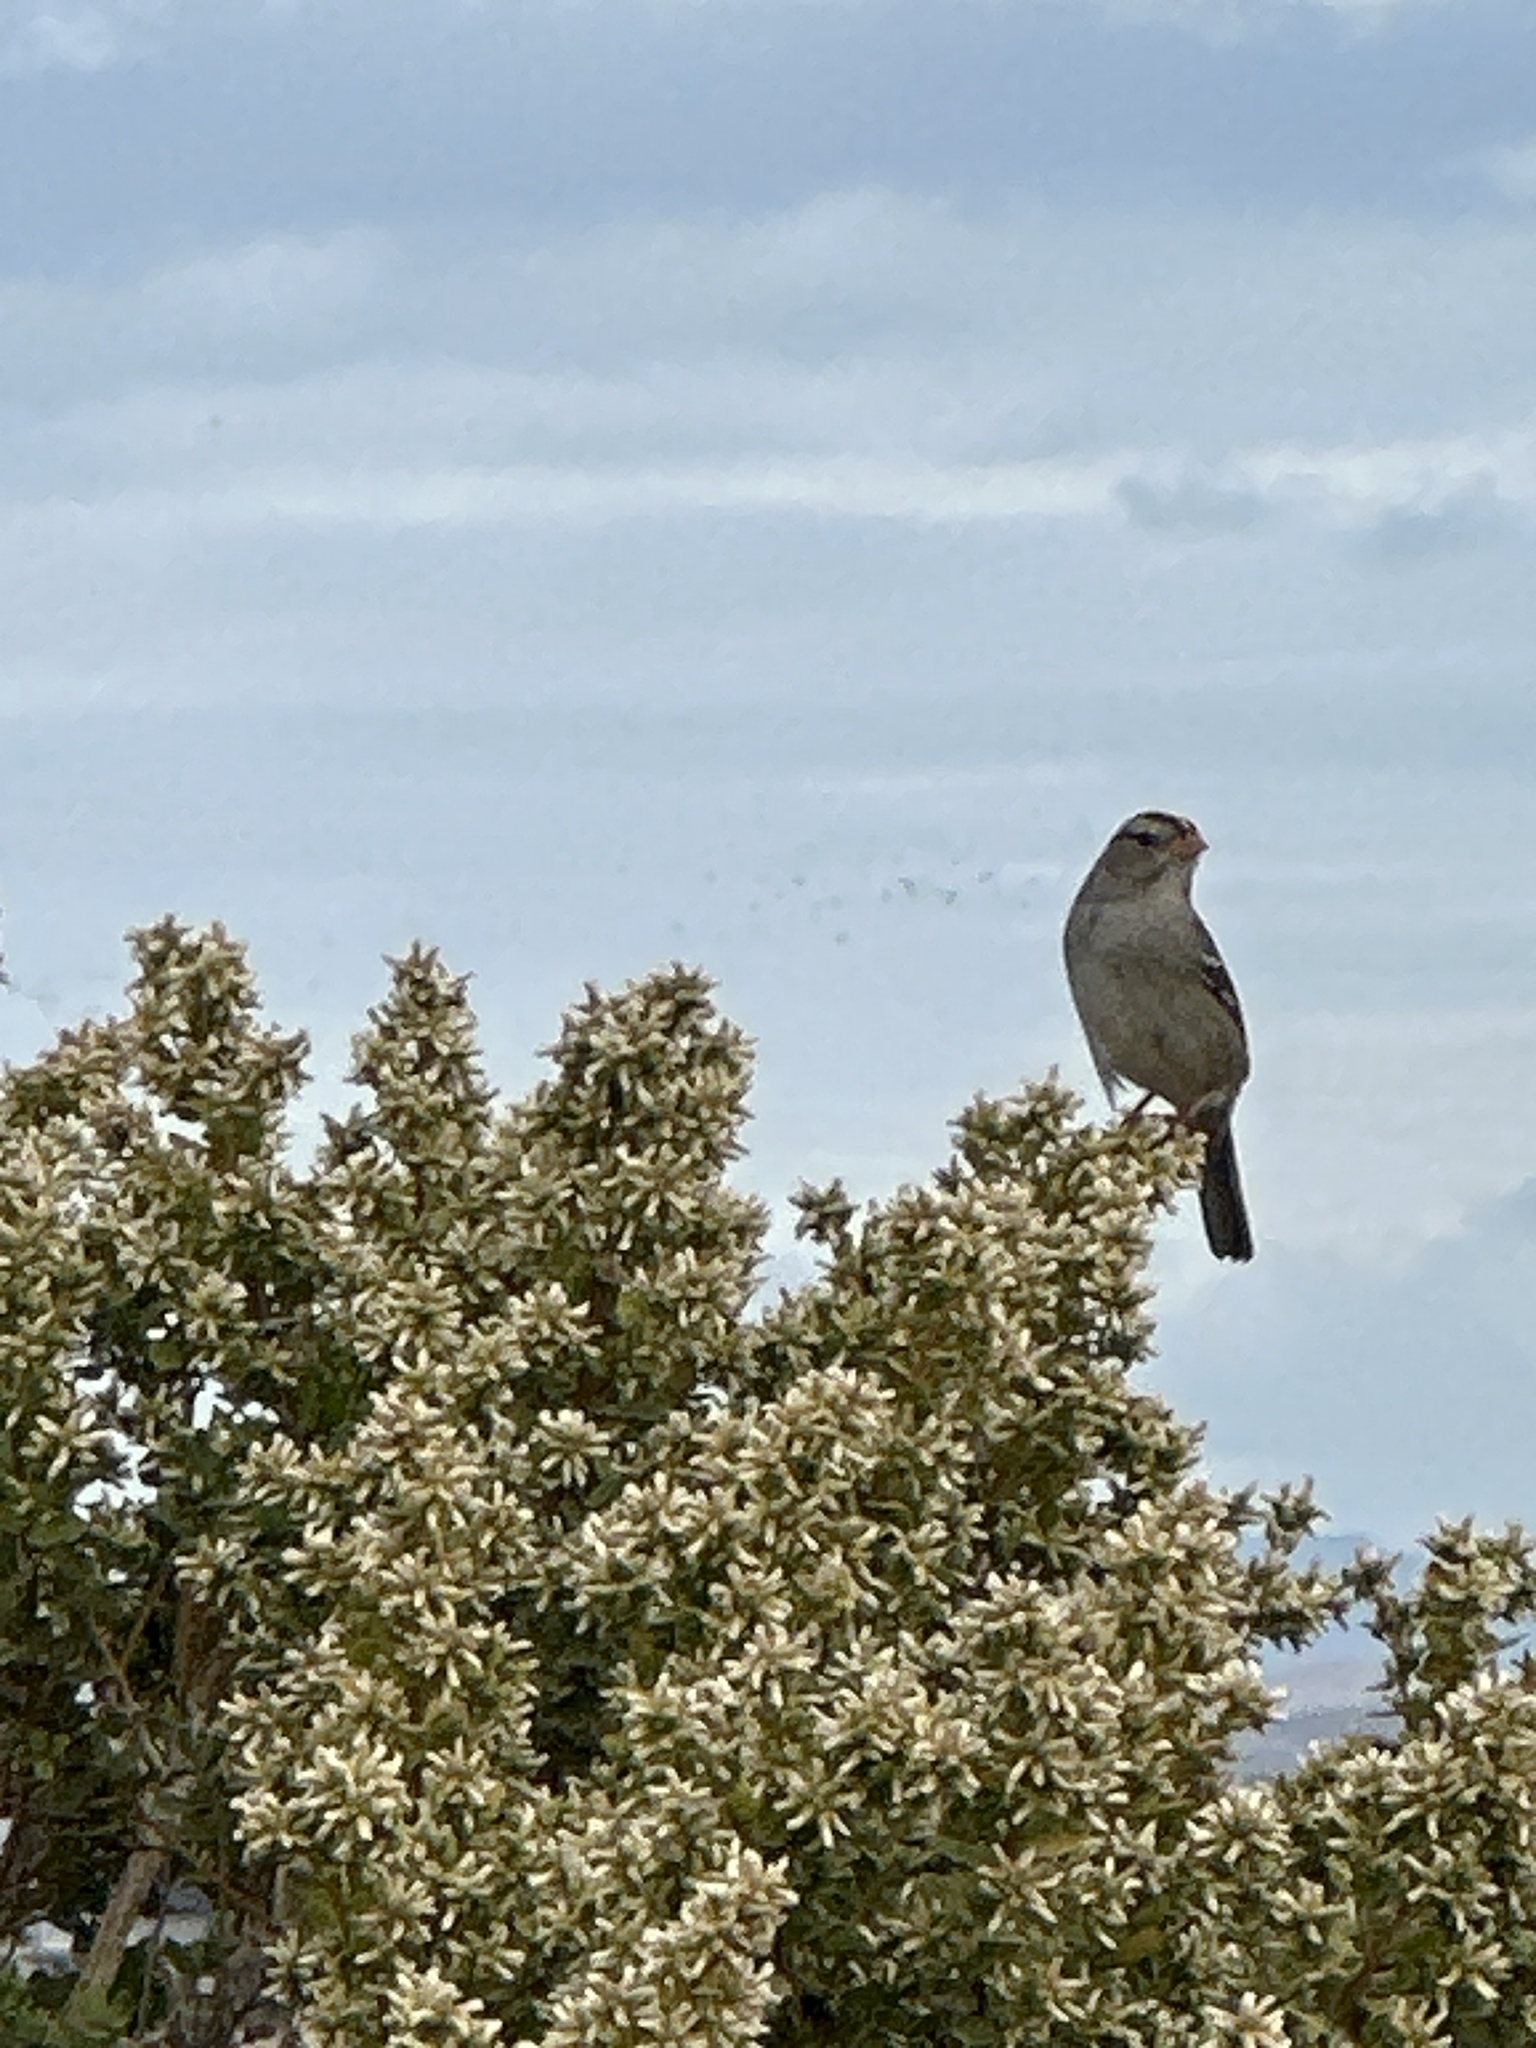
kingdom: Animalia
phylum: Chordata
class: Aves
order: Passeriformes
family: Passerellidae
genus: Zonotrichia
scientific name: Zonotrichia leucophrys
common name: White-crowned sparrow
